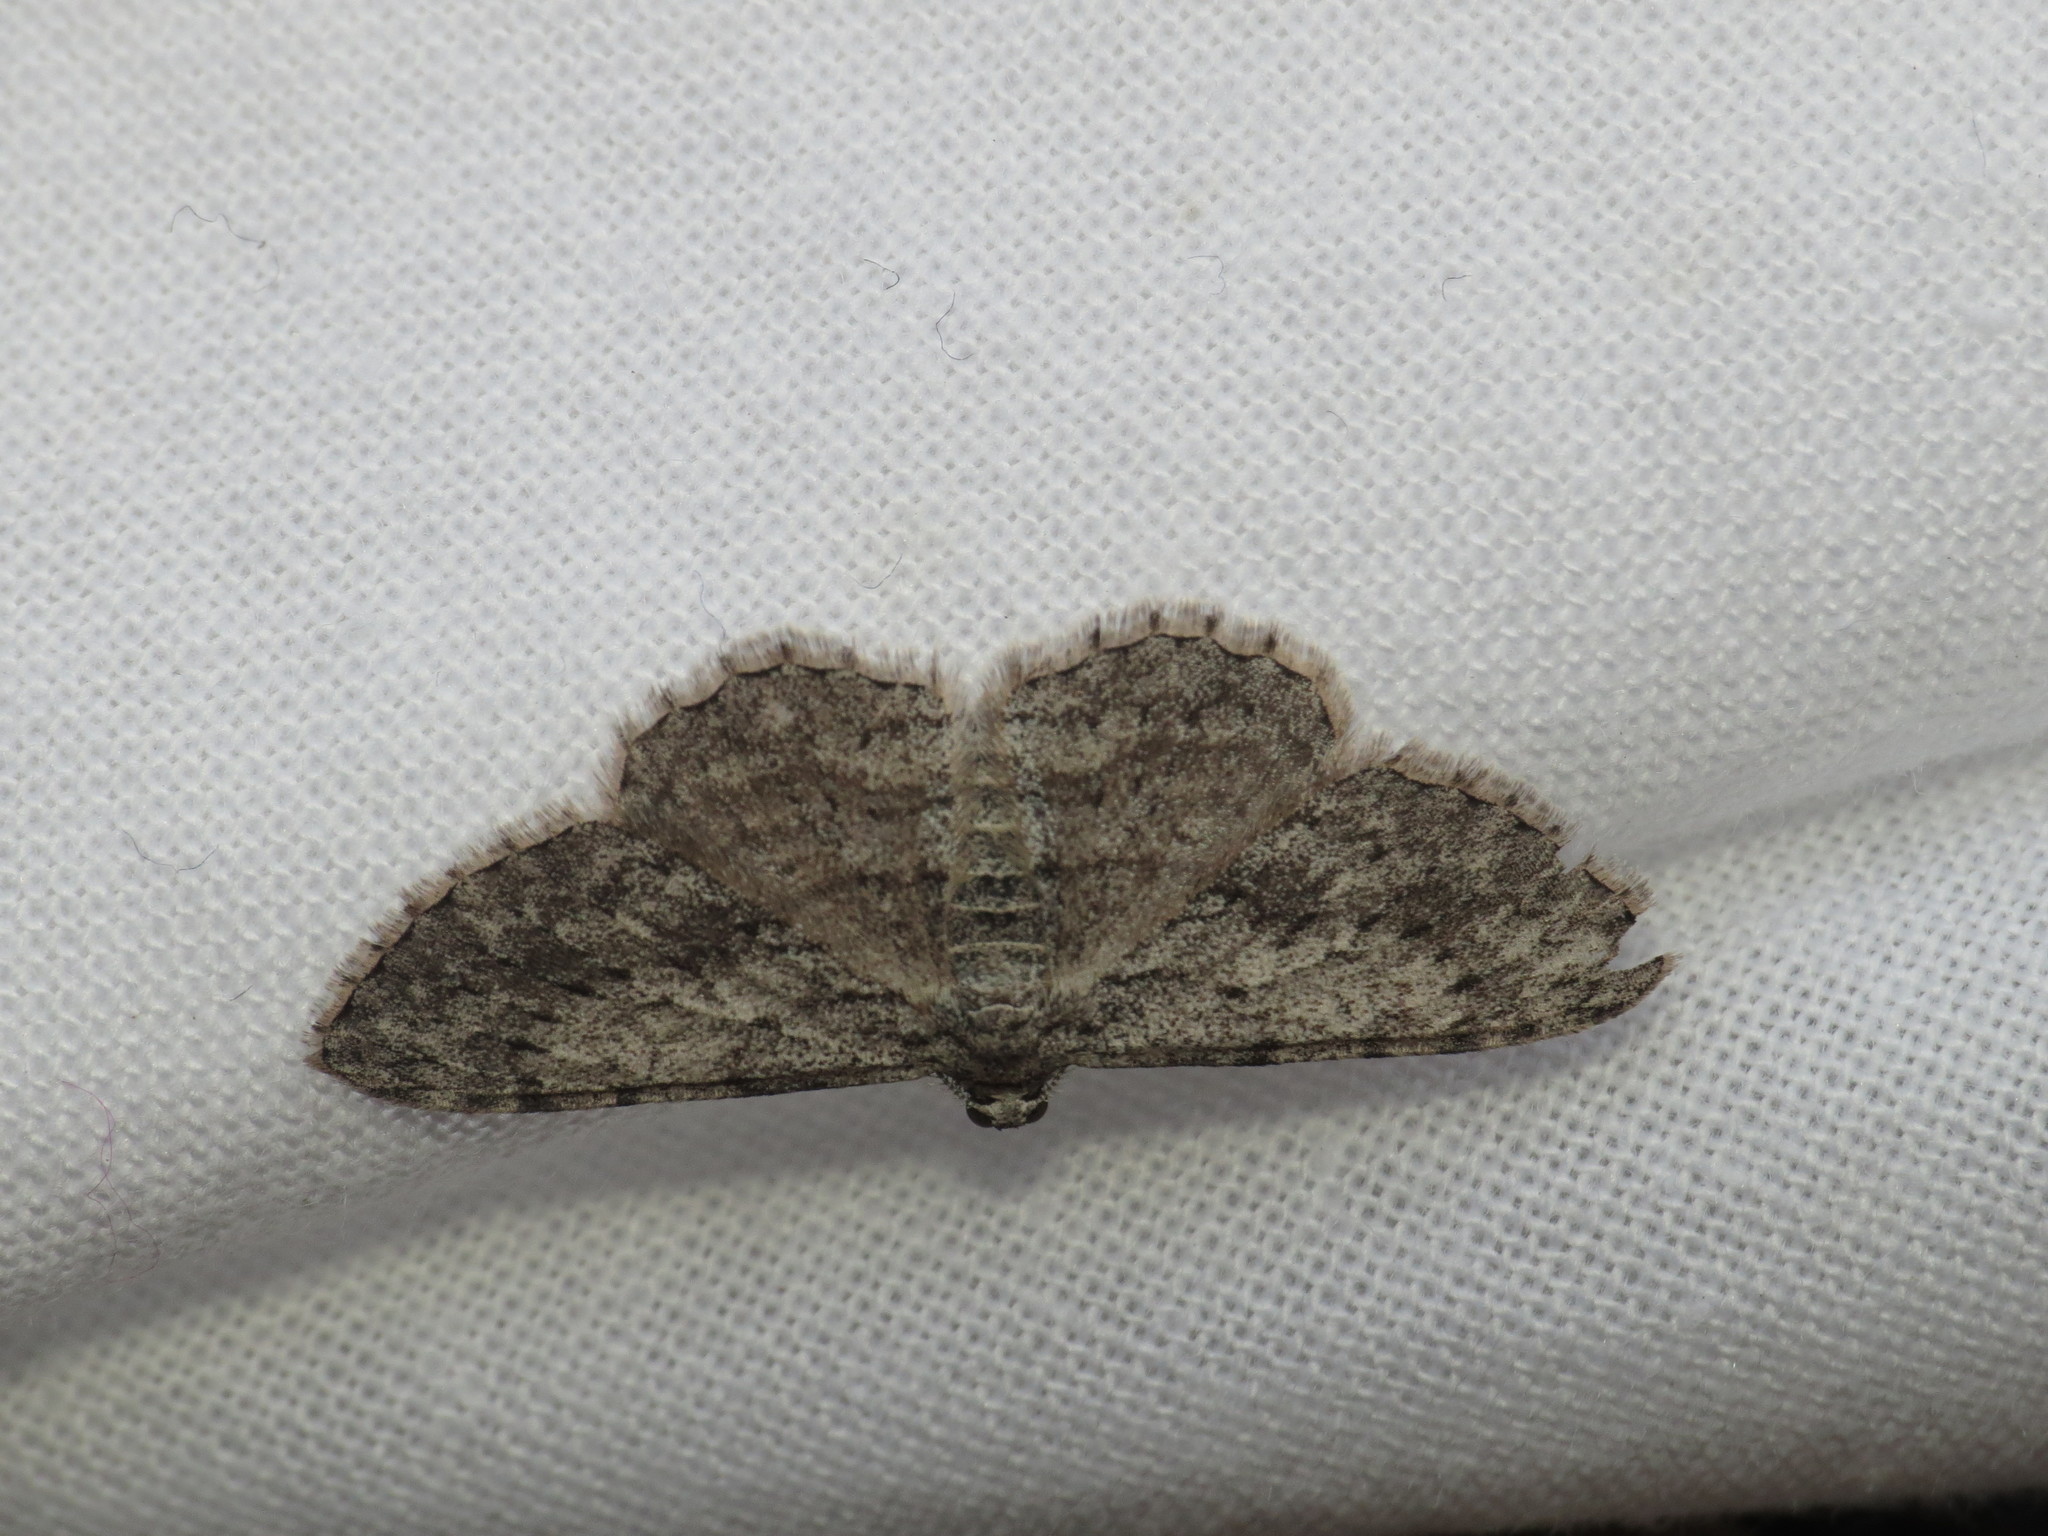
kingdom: Animalia
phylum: Arthropoda
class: Insecta
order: Lepidoptera
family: Geometridae
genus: Phelotis
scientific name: Phelotis cognata
